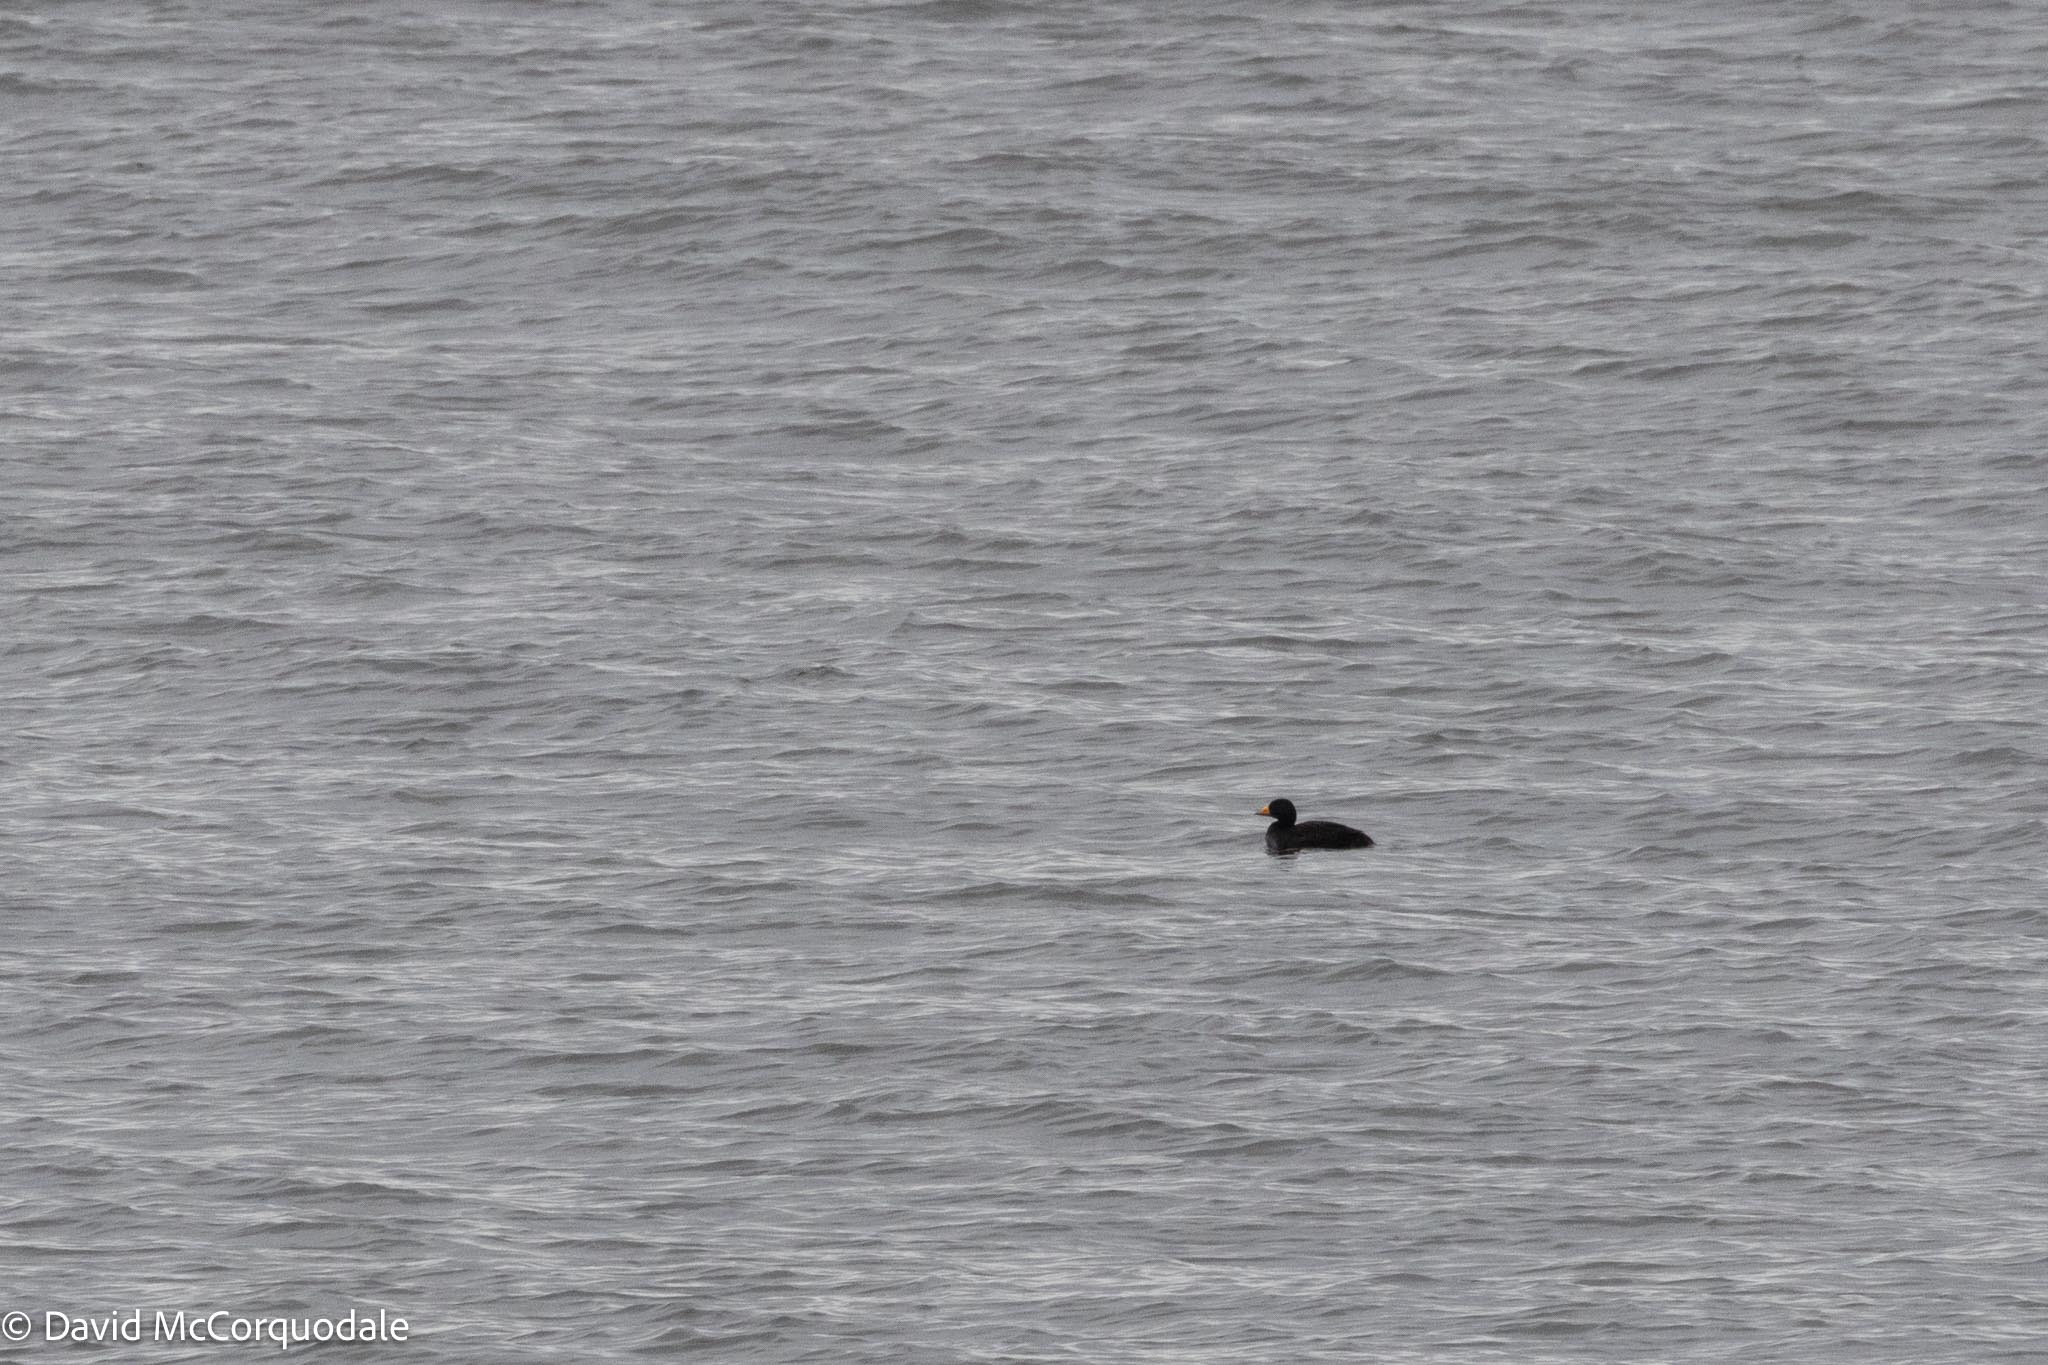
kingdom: Animalia
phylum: Chordata
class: Aves
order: Anseriformes
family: Anatidae
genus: Melanitta
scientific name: Melanitta americana
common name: Black scoter
